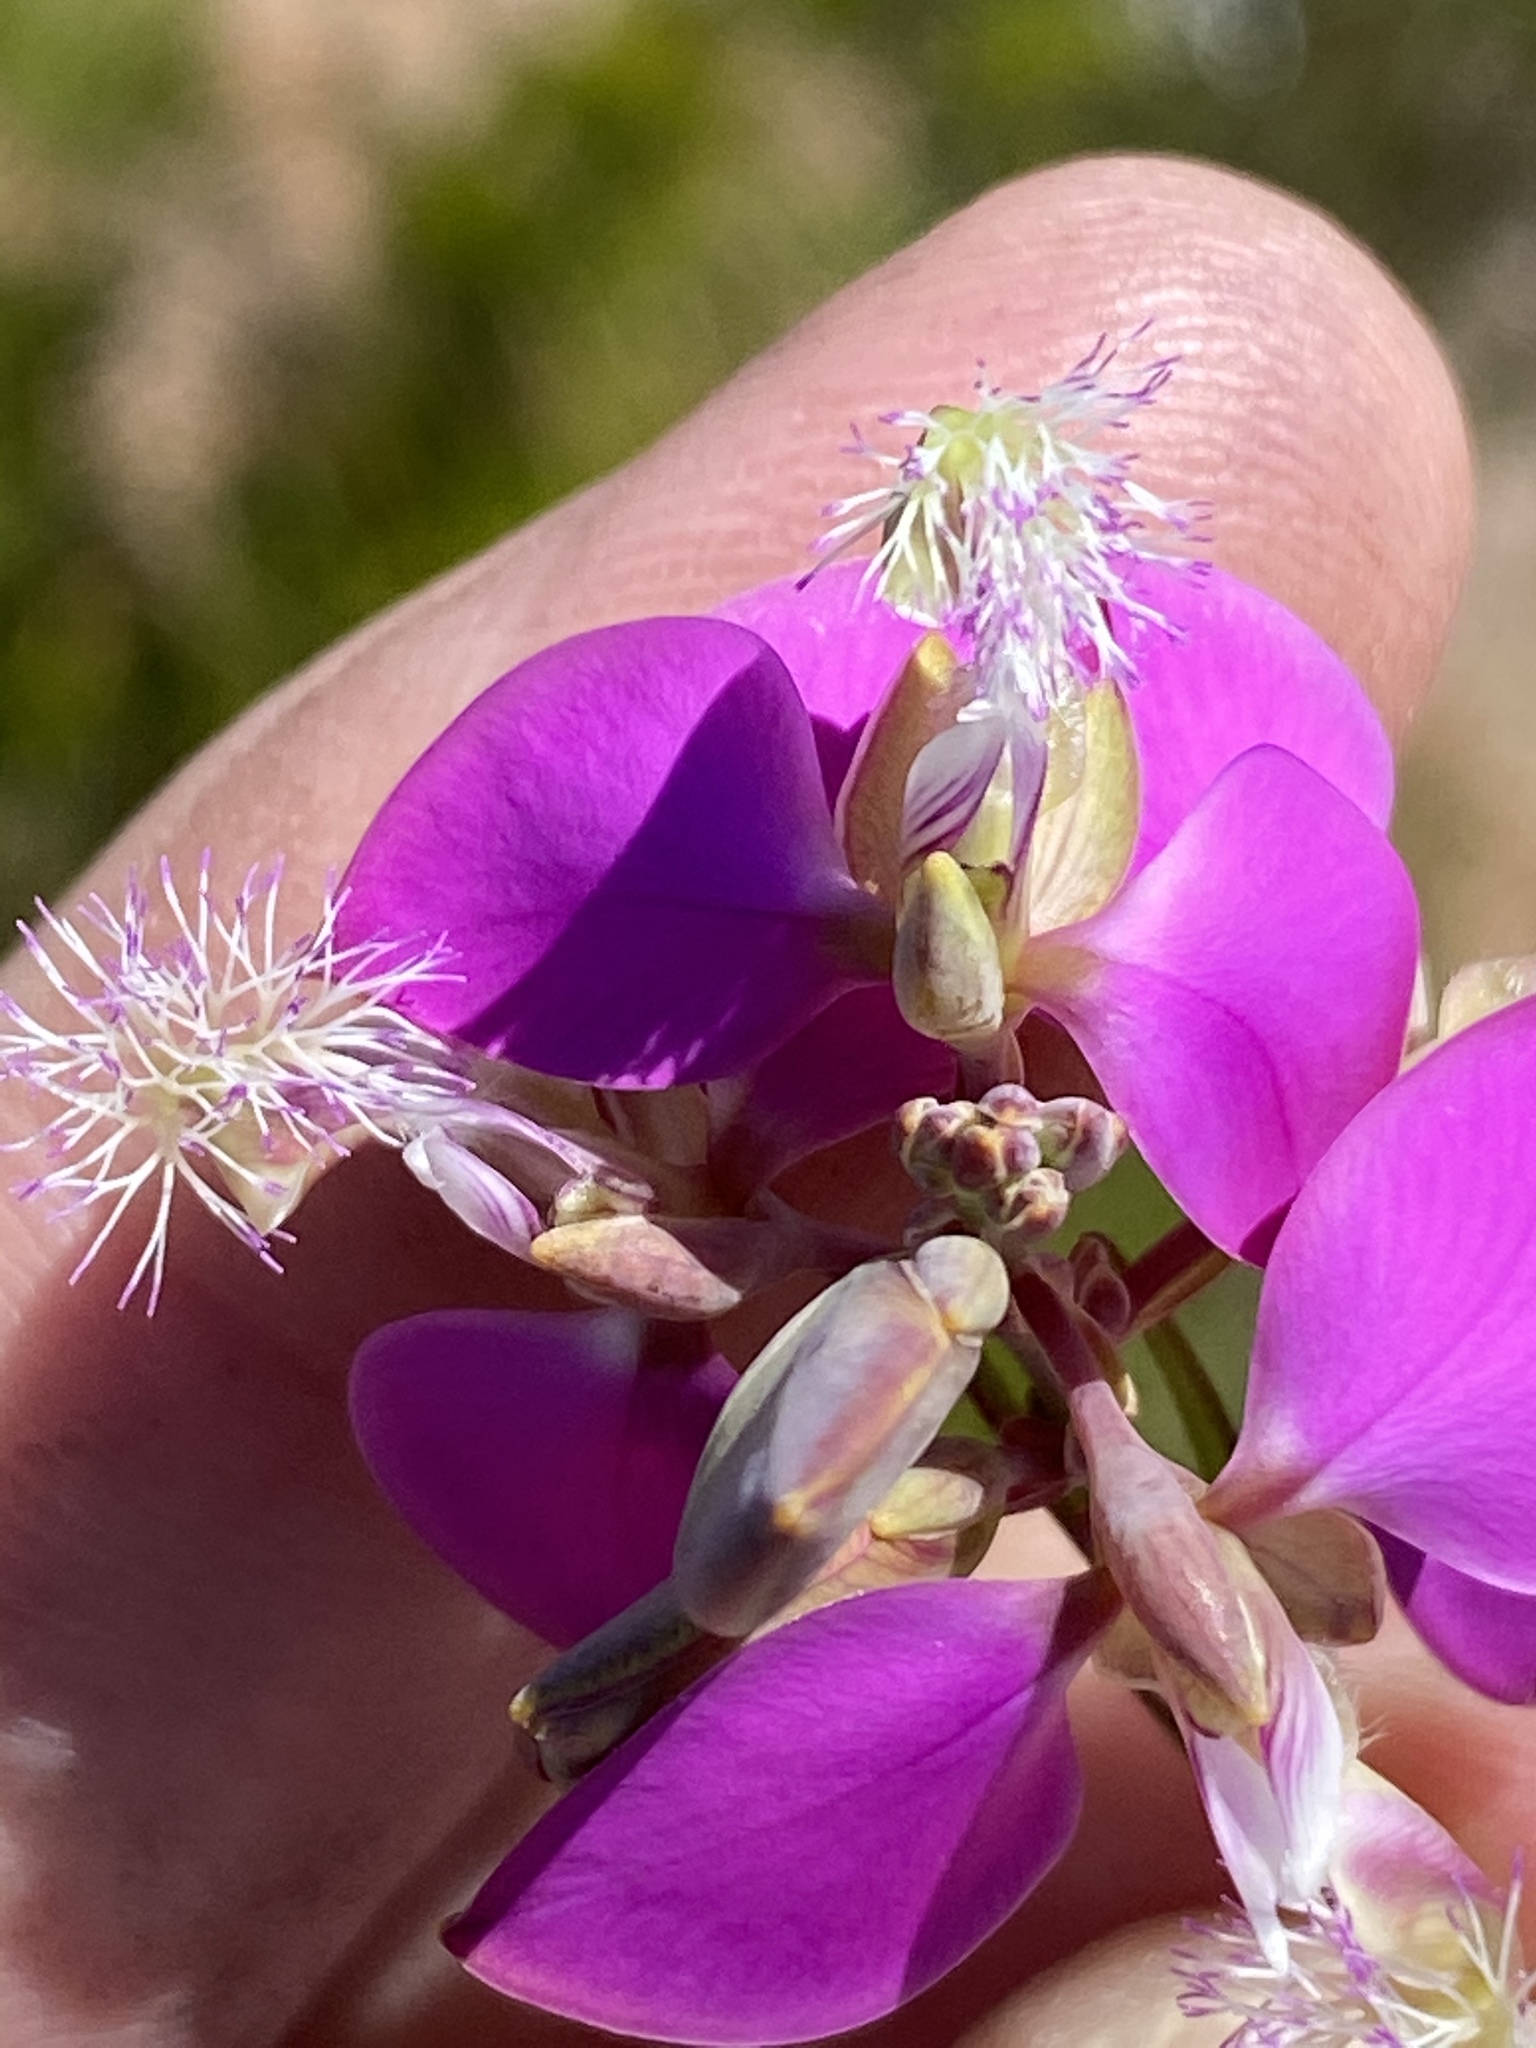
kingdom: Plantae
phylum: Tracheophyta
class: Magnoliopsida
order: Fabales
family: Polygalaceae
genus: Polygala
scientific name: Polygala bracteolata
